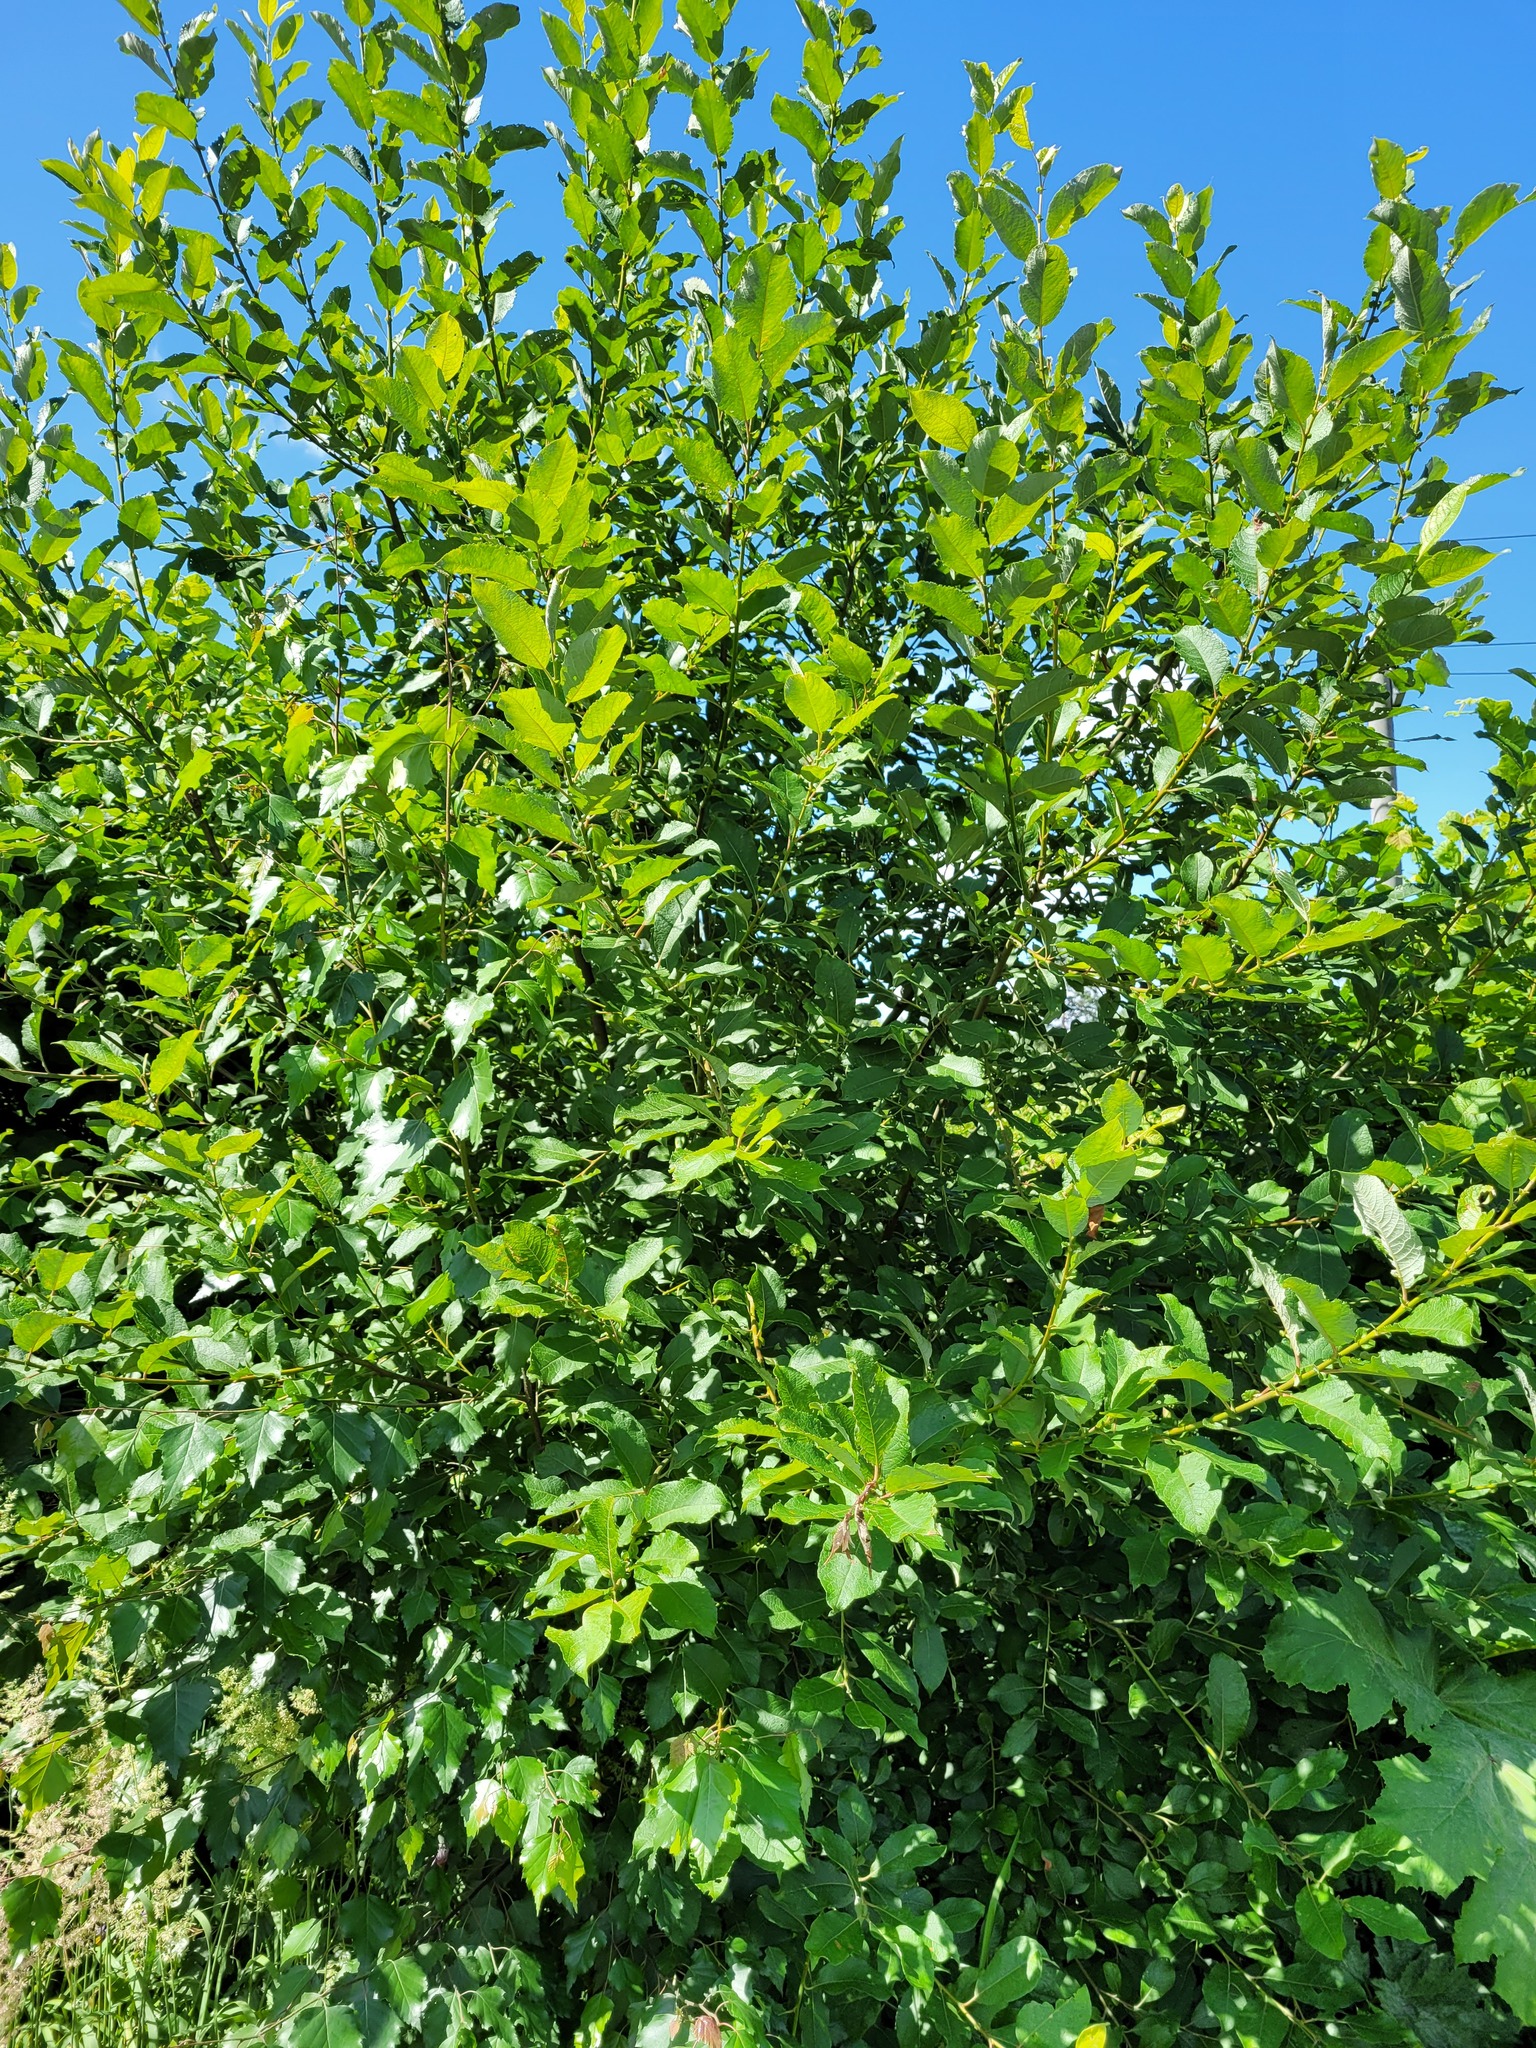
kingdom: Plantae
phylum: Tracheophyta
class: Magnoliopsida
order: Malpighiales
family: Salicaceae
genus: Salix
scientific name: Salix myrsinifolia
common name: Dark-leaved willow
